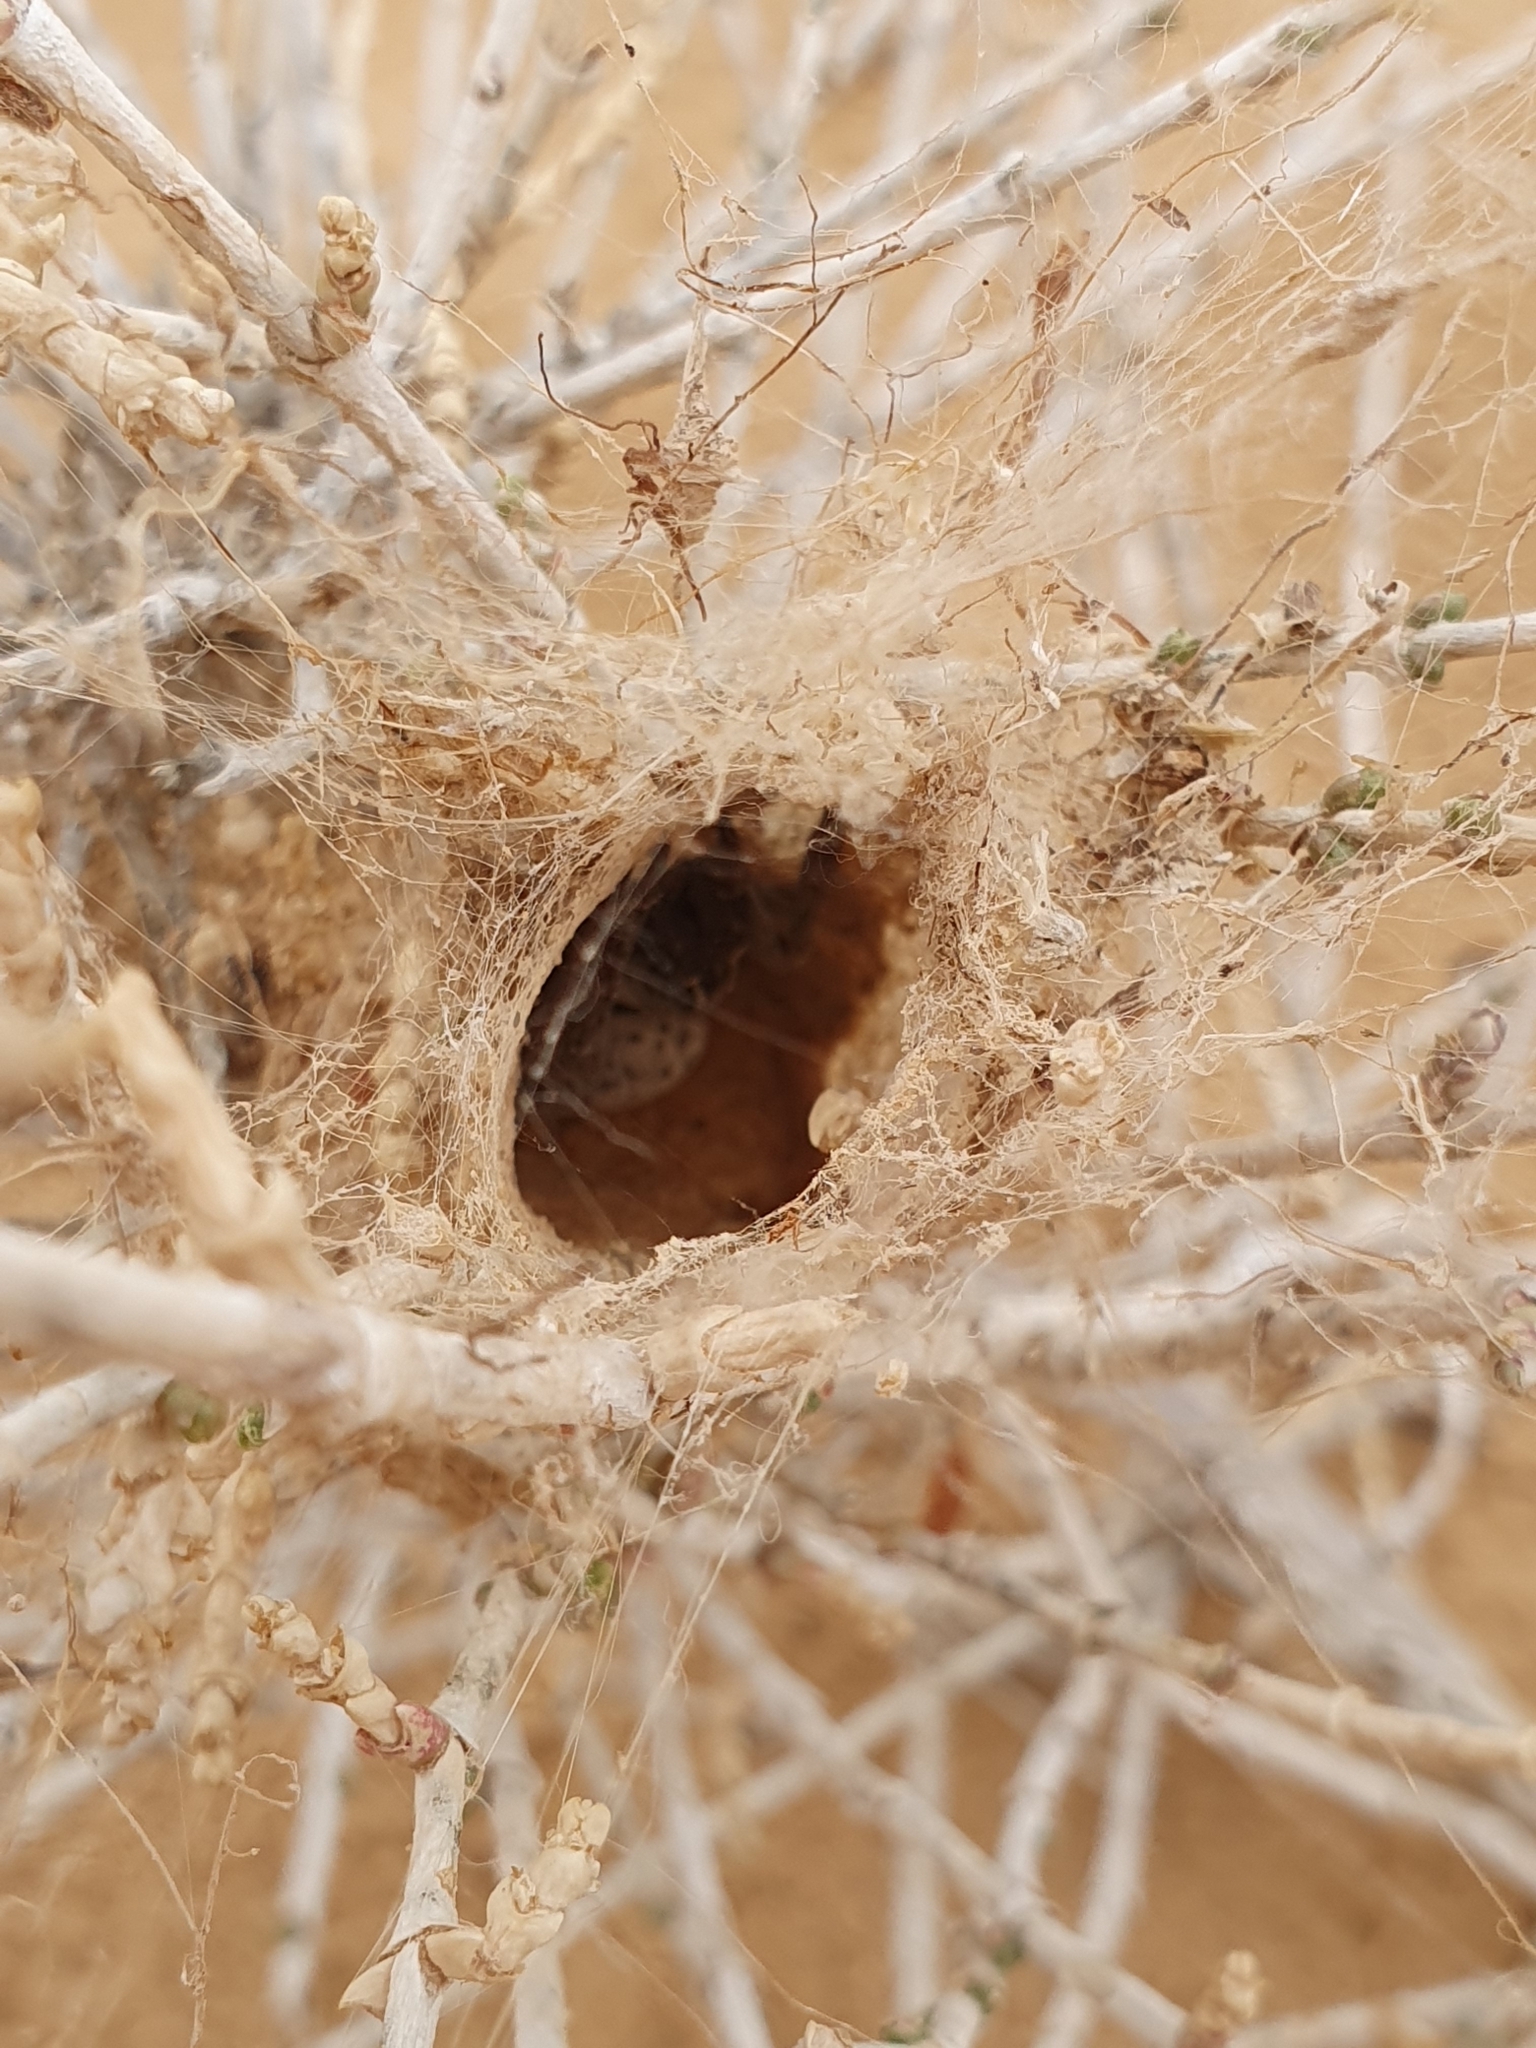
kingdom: Animalia
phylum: Arthropoda
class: Arachnida
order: Araneae
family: Eresidae
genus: Stegodyphus
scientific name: Stegodyphus lineatus
